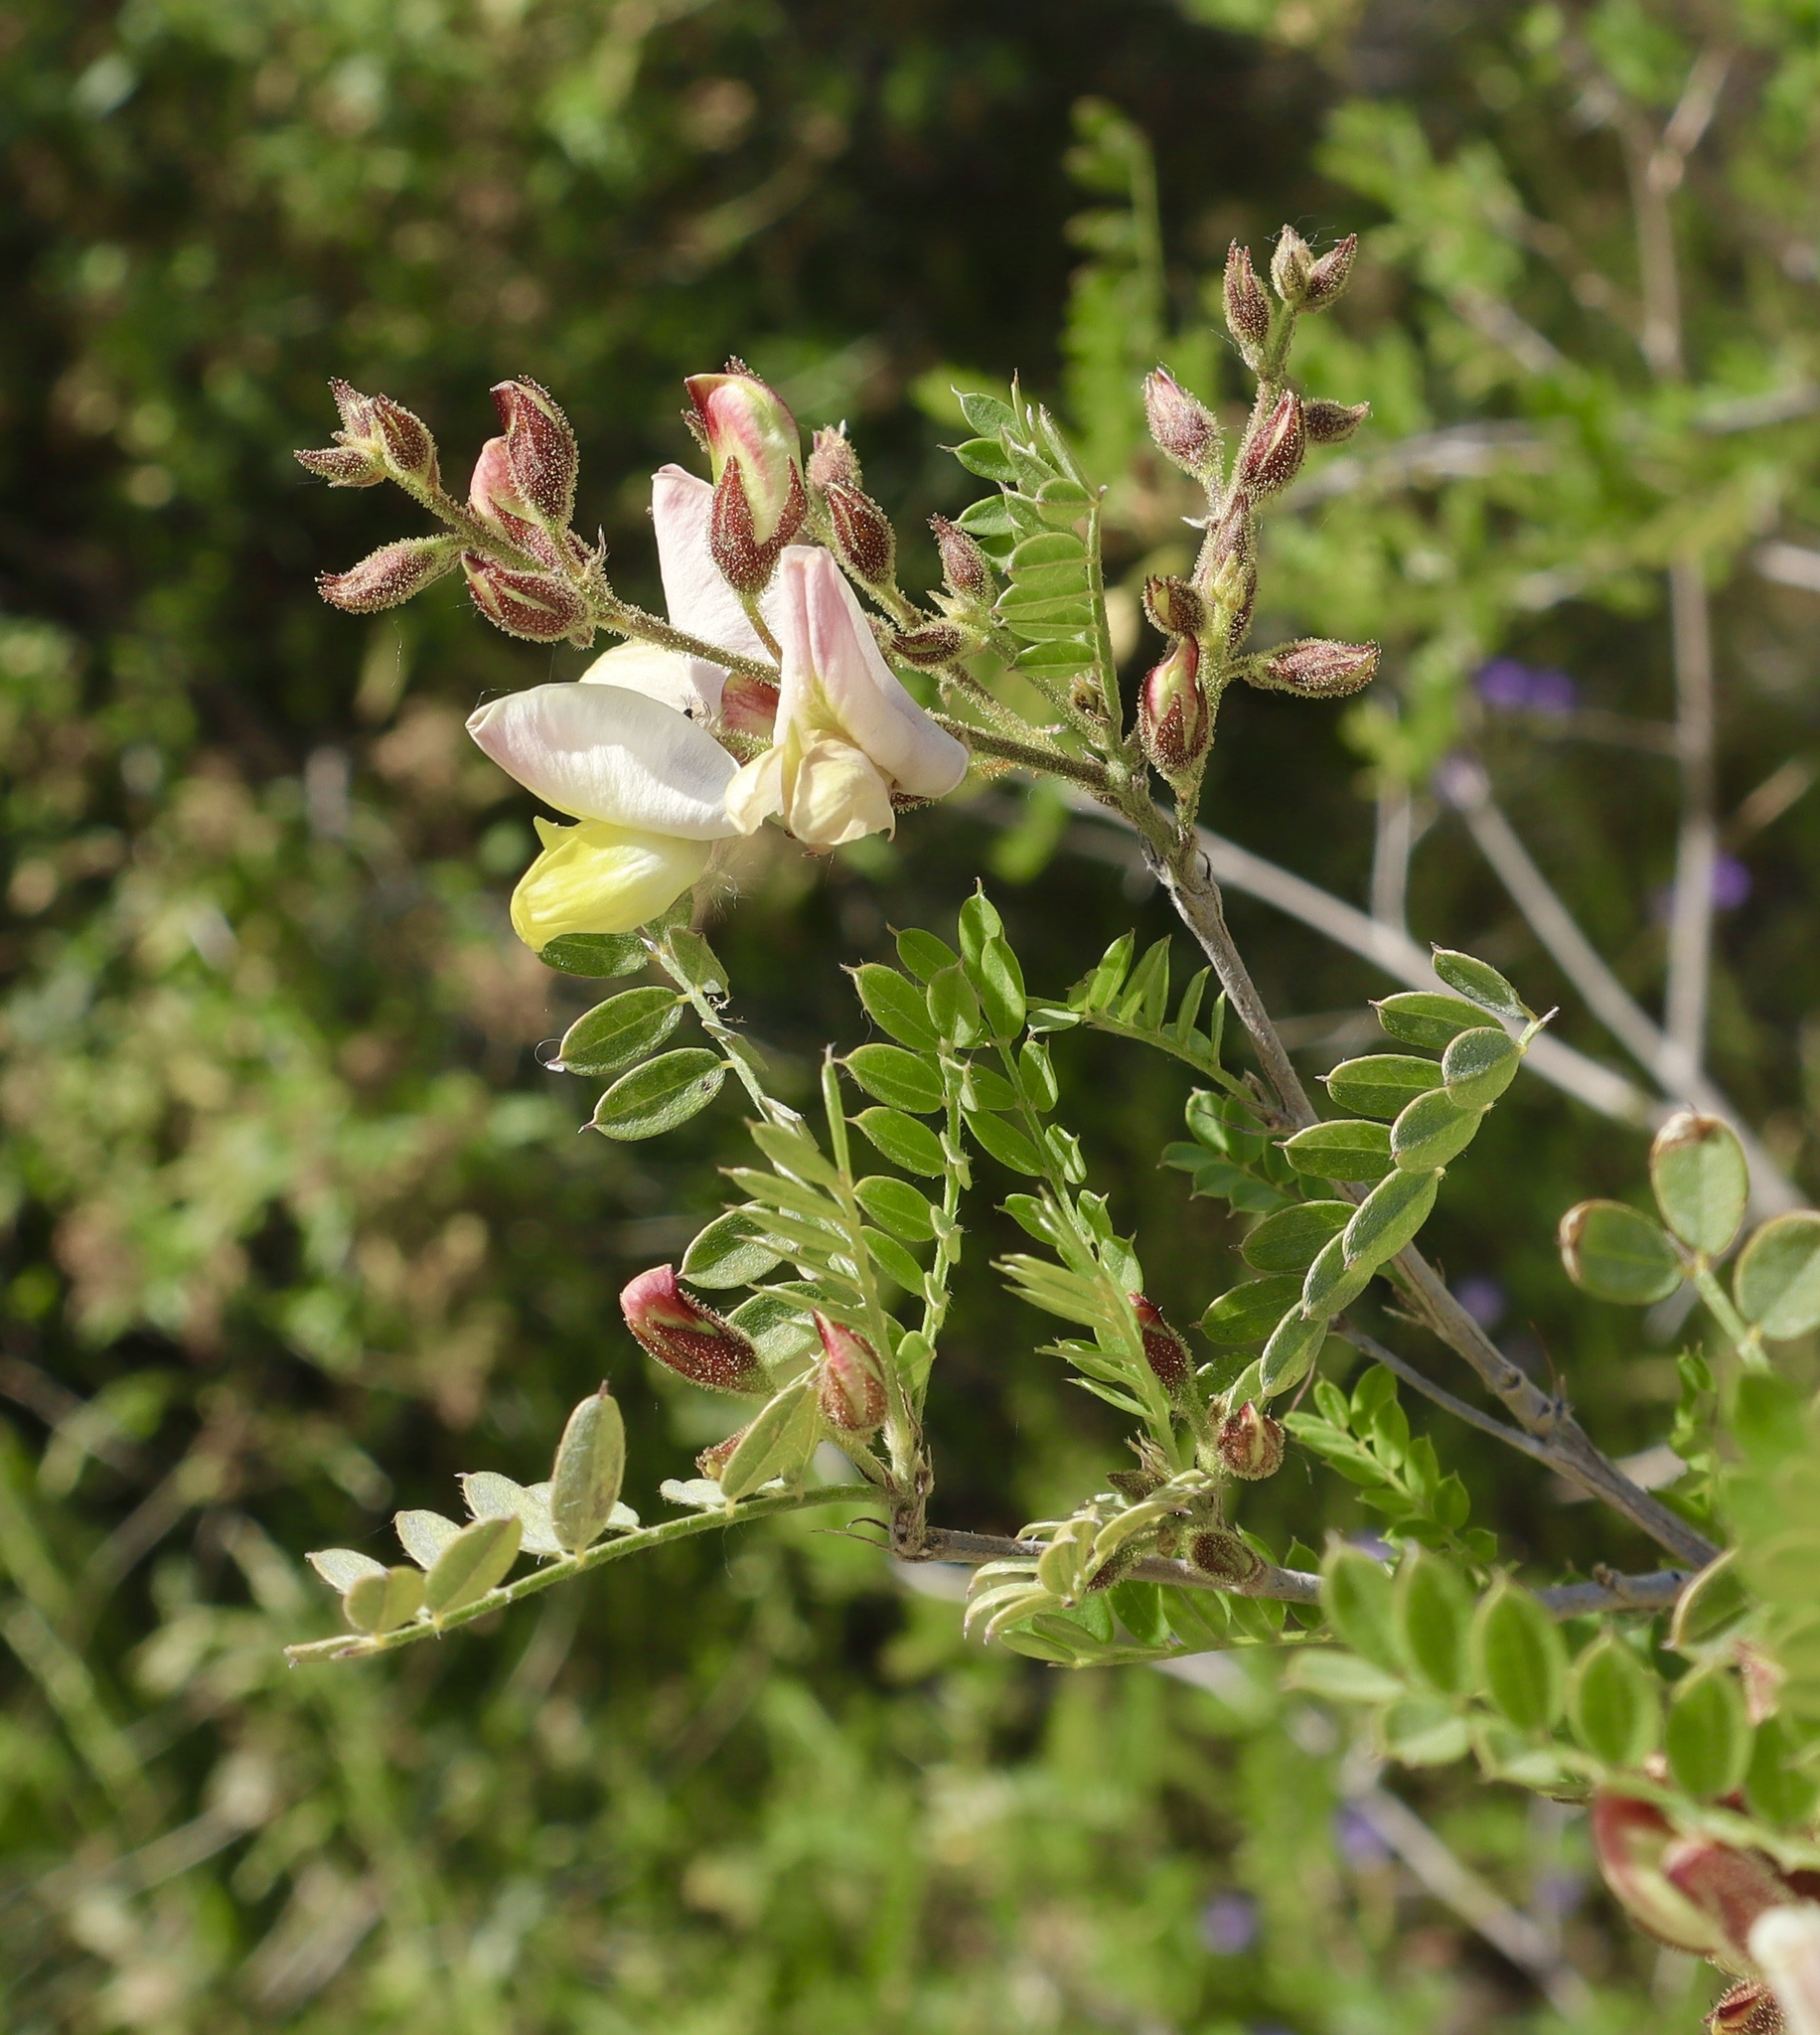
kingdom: Plantae
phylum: Tracheophyta
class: Magnoliopsida
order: Fabales
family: Fabaceae
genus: Coursetia
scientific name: Coursetia glandulosa
